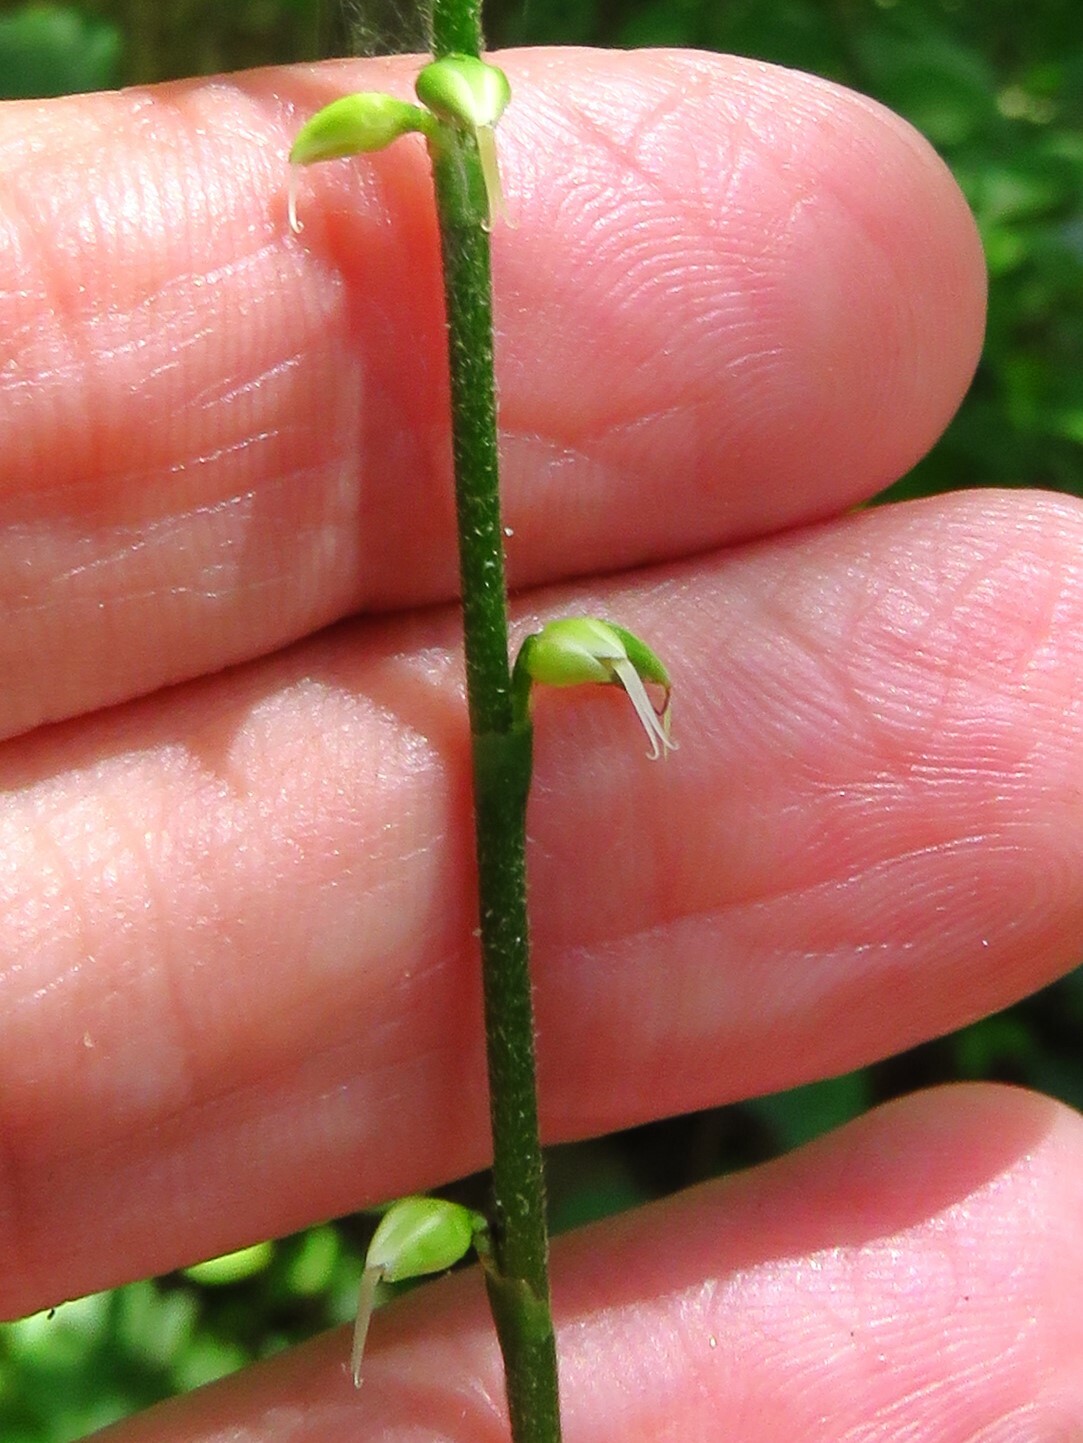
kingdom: Plantae
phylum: Tracheophyta
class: Magnoliopsida
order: Caryophyllales
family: Polygonaceae
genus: Persicaria
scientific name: Persicaria virginiana
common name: Jumpseed
